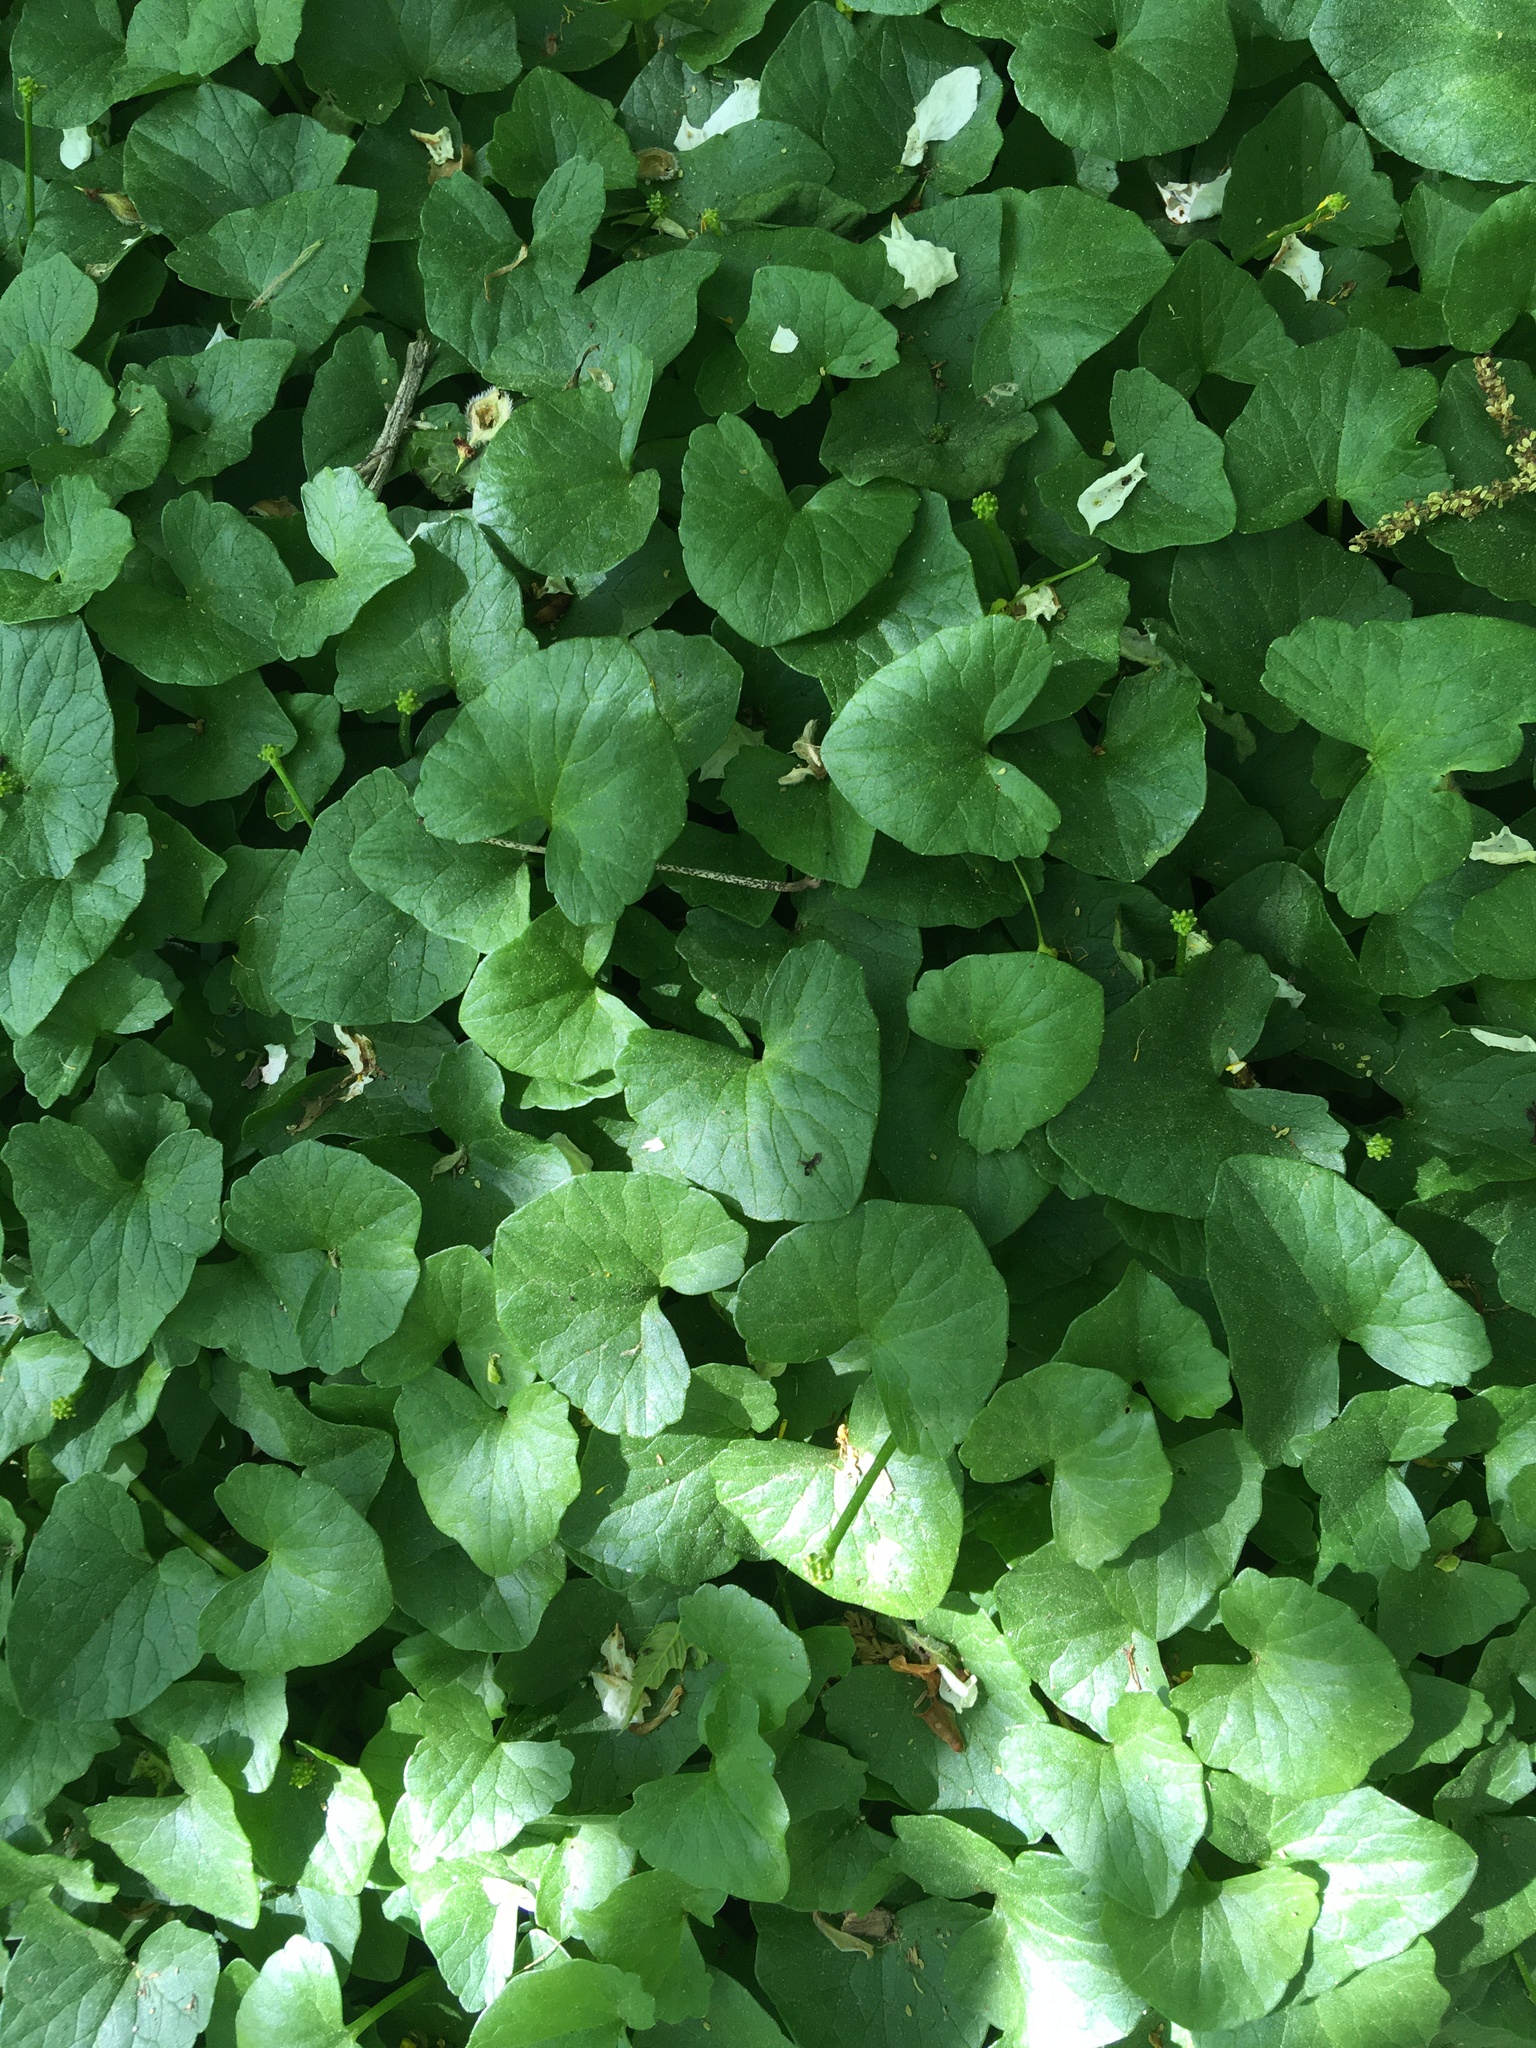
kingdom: Plantae
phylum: Tracheophyta
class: Magnoliopsida
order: Ranunculales
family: Ranunculaceae
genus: Ficaria
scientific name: Ficaria verna
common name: Lesser celandine
